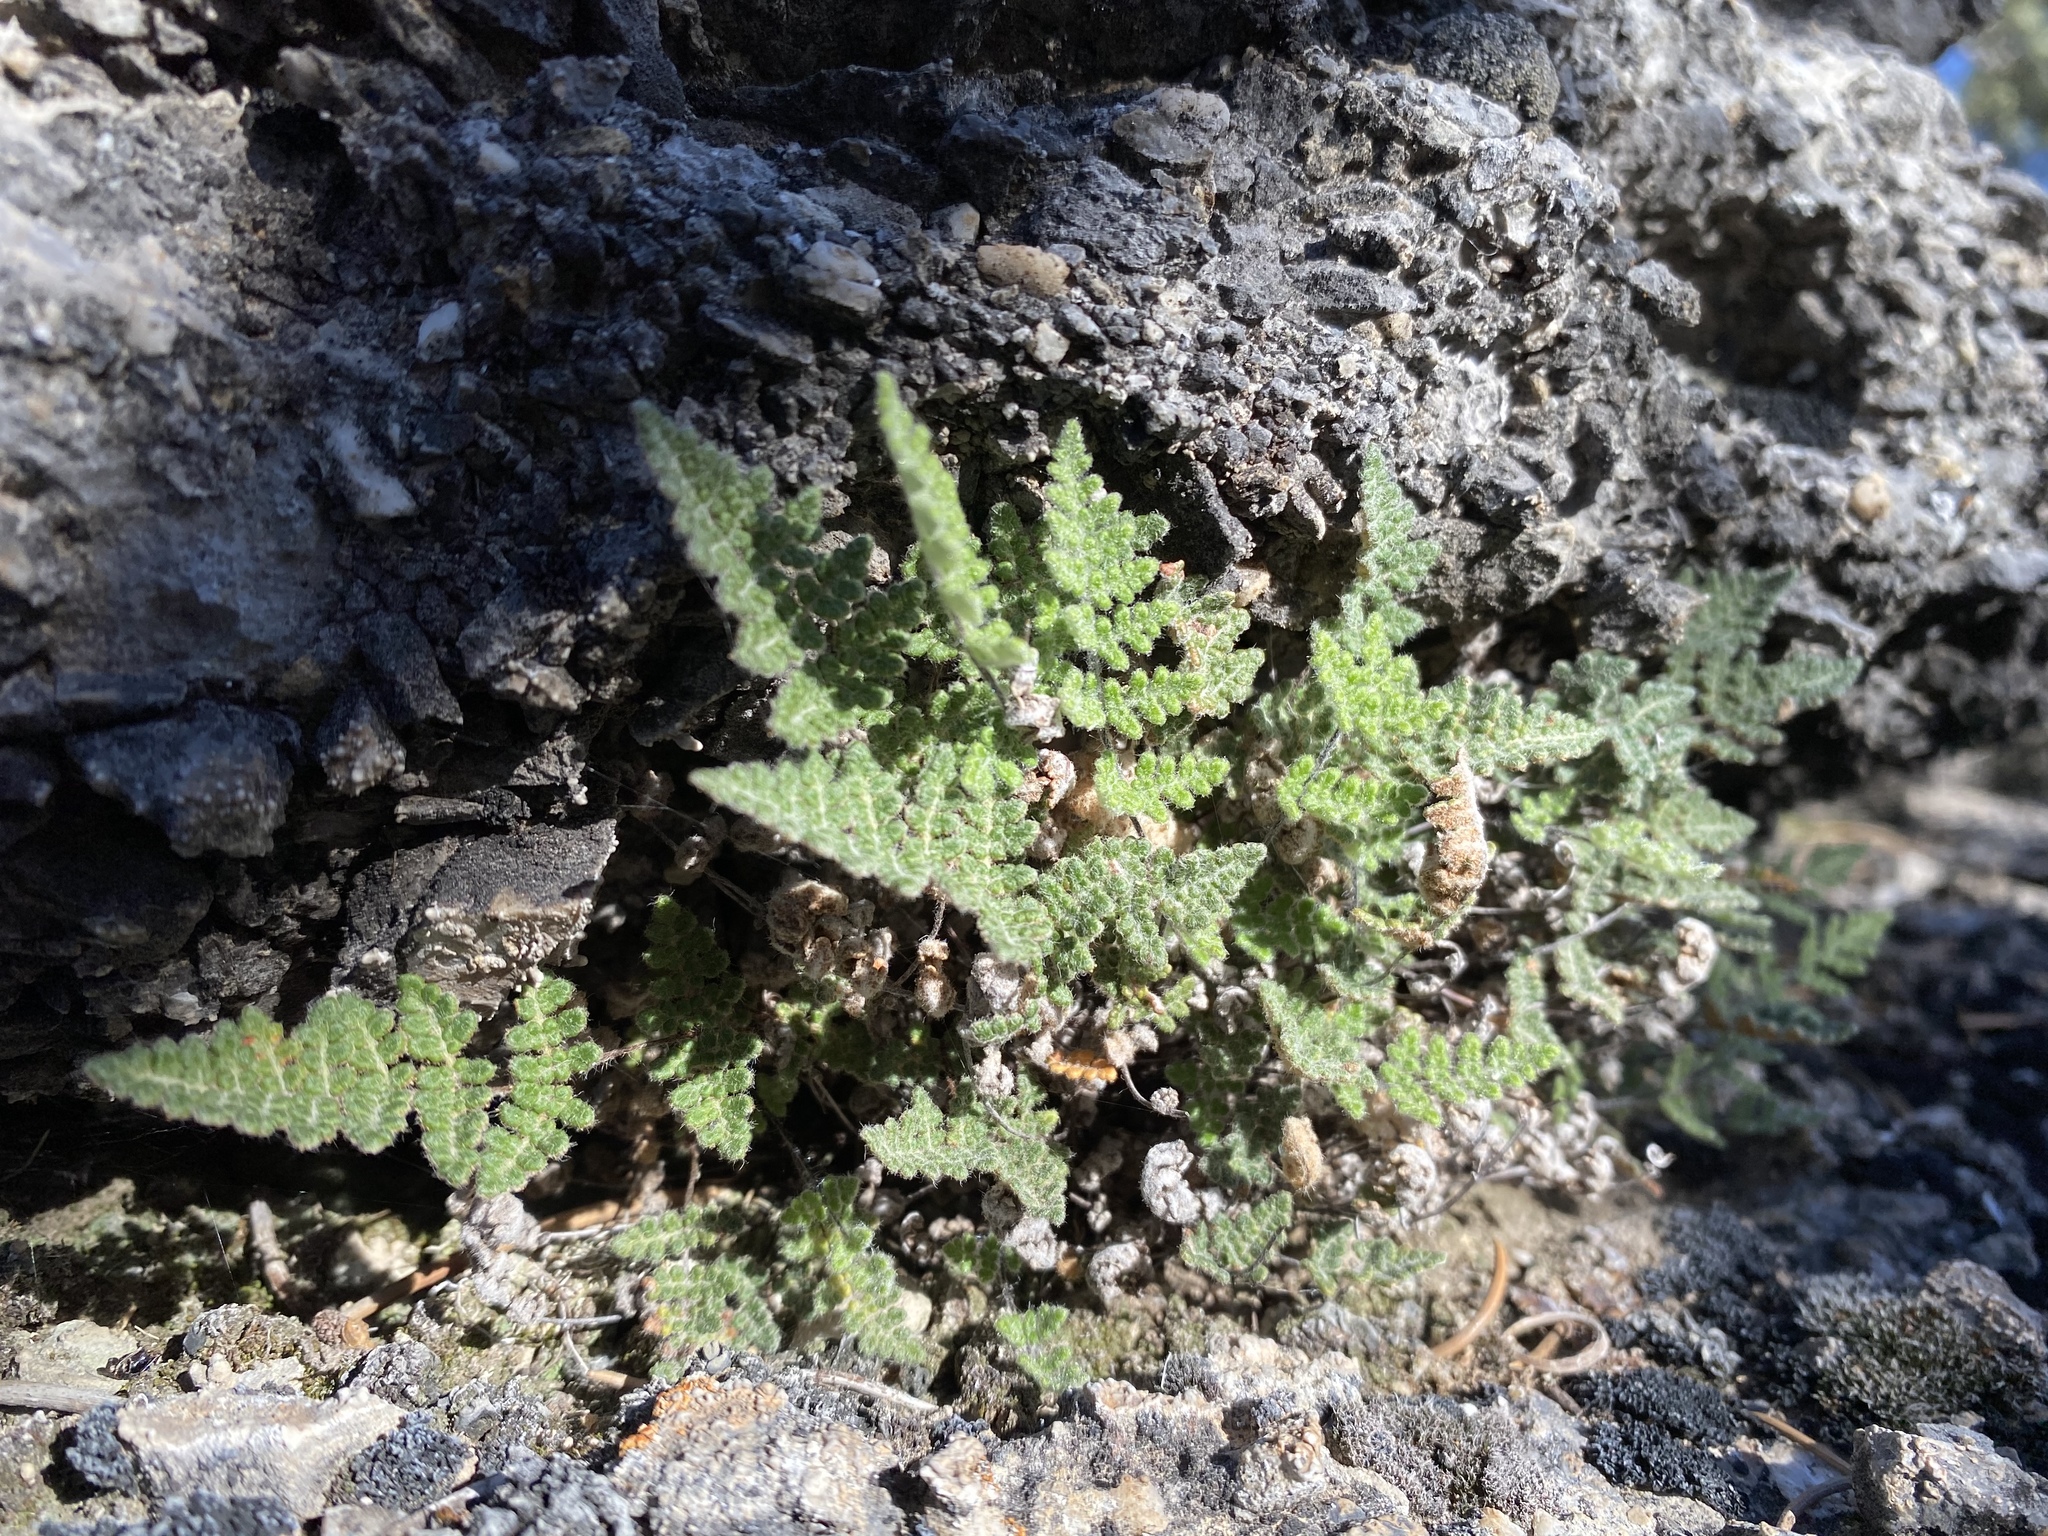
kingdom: Plantae
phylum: Tracheophyta
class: Polypodiopsida
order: Polypodiales
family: Pteridaceae
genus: Myriopteris
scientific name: Myriopteris gracilis
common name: Fee's lip fern
